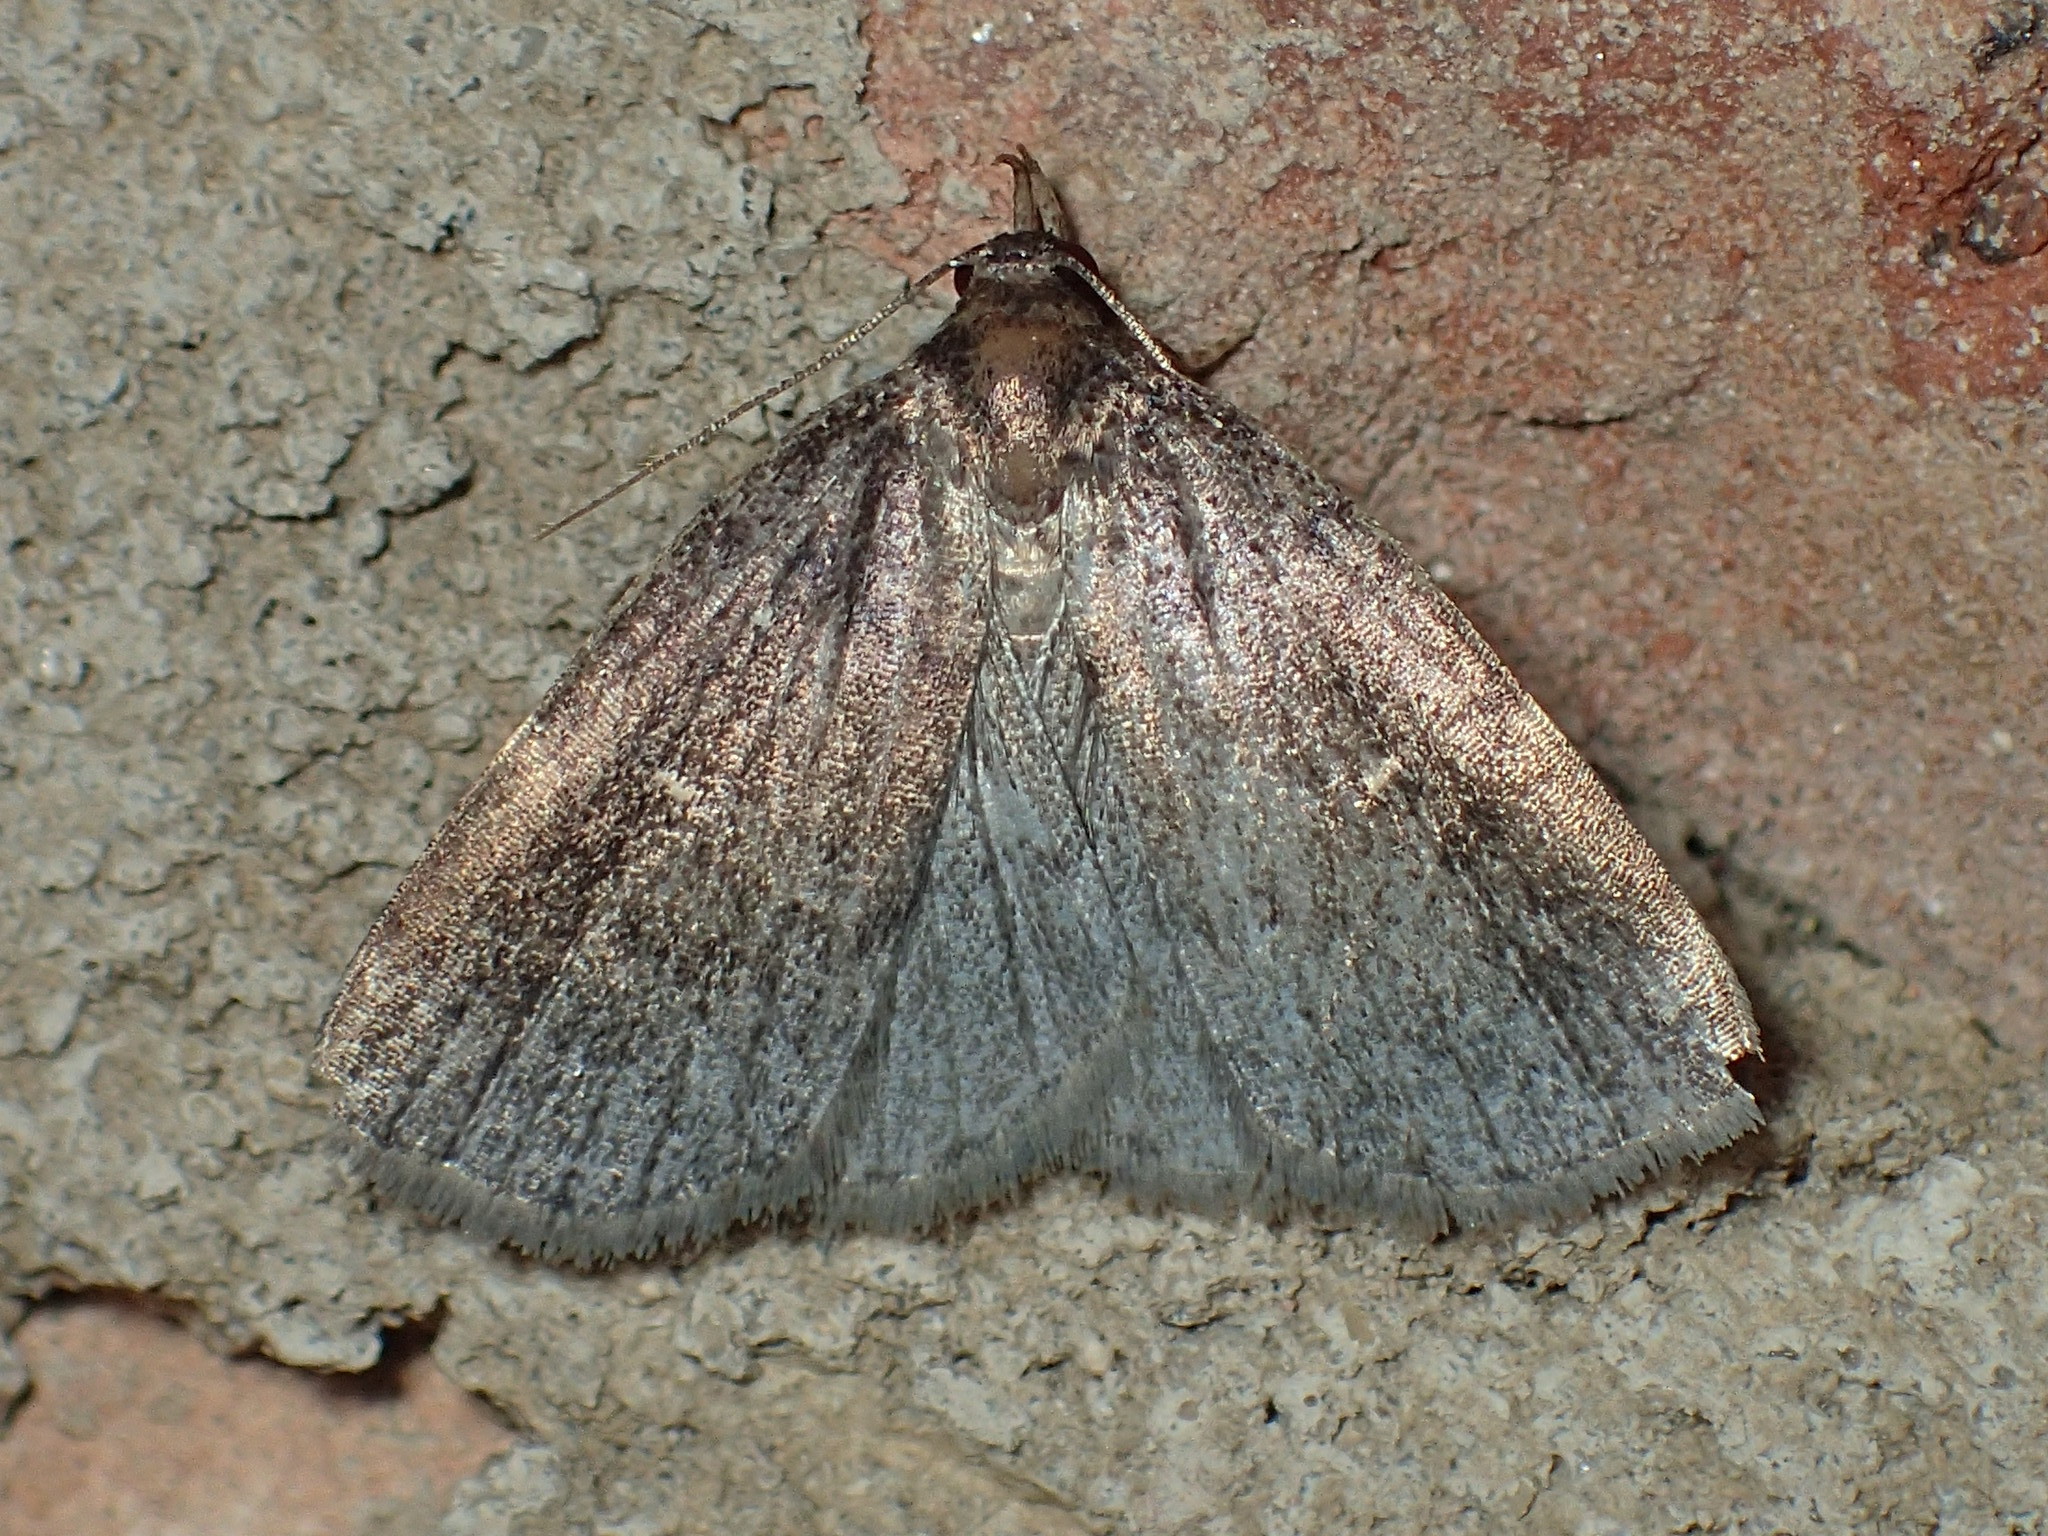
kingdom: Animalia
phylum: Arthropoda
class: Insecta
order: Lepidoptera
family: Erebidae
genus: Idia
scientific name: Idia rotundalis
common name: Rotund idia moth
